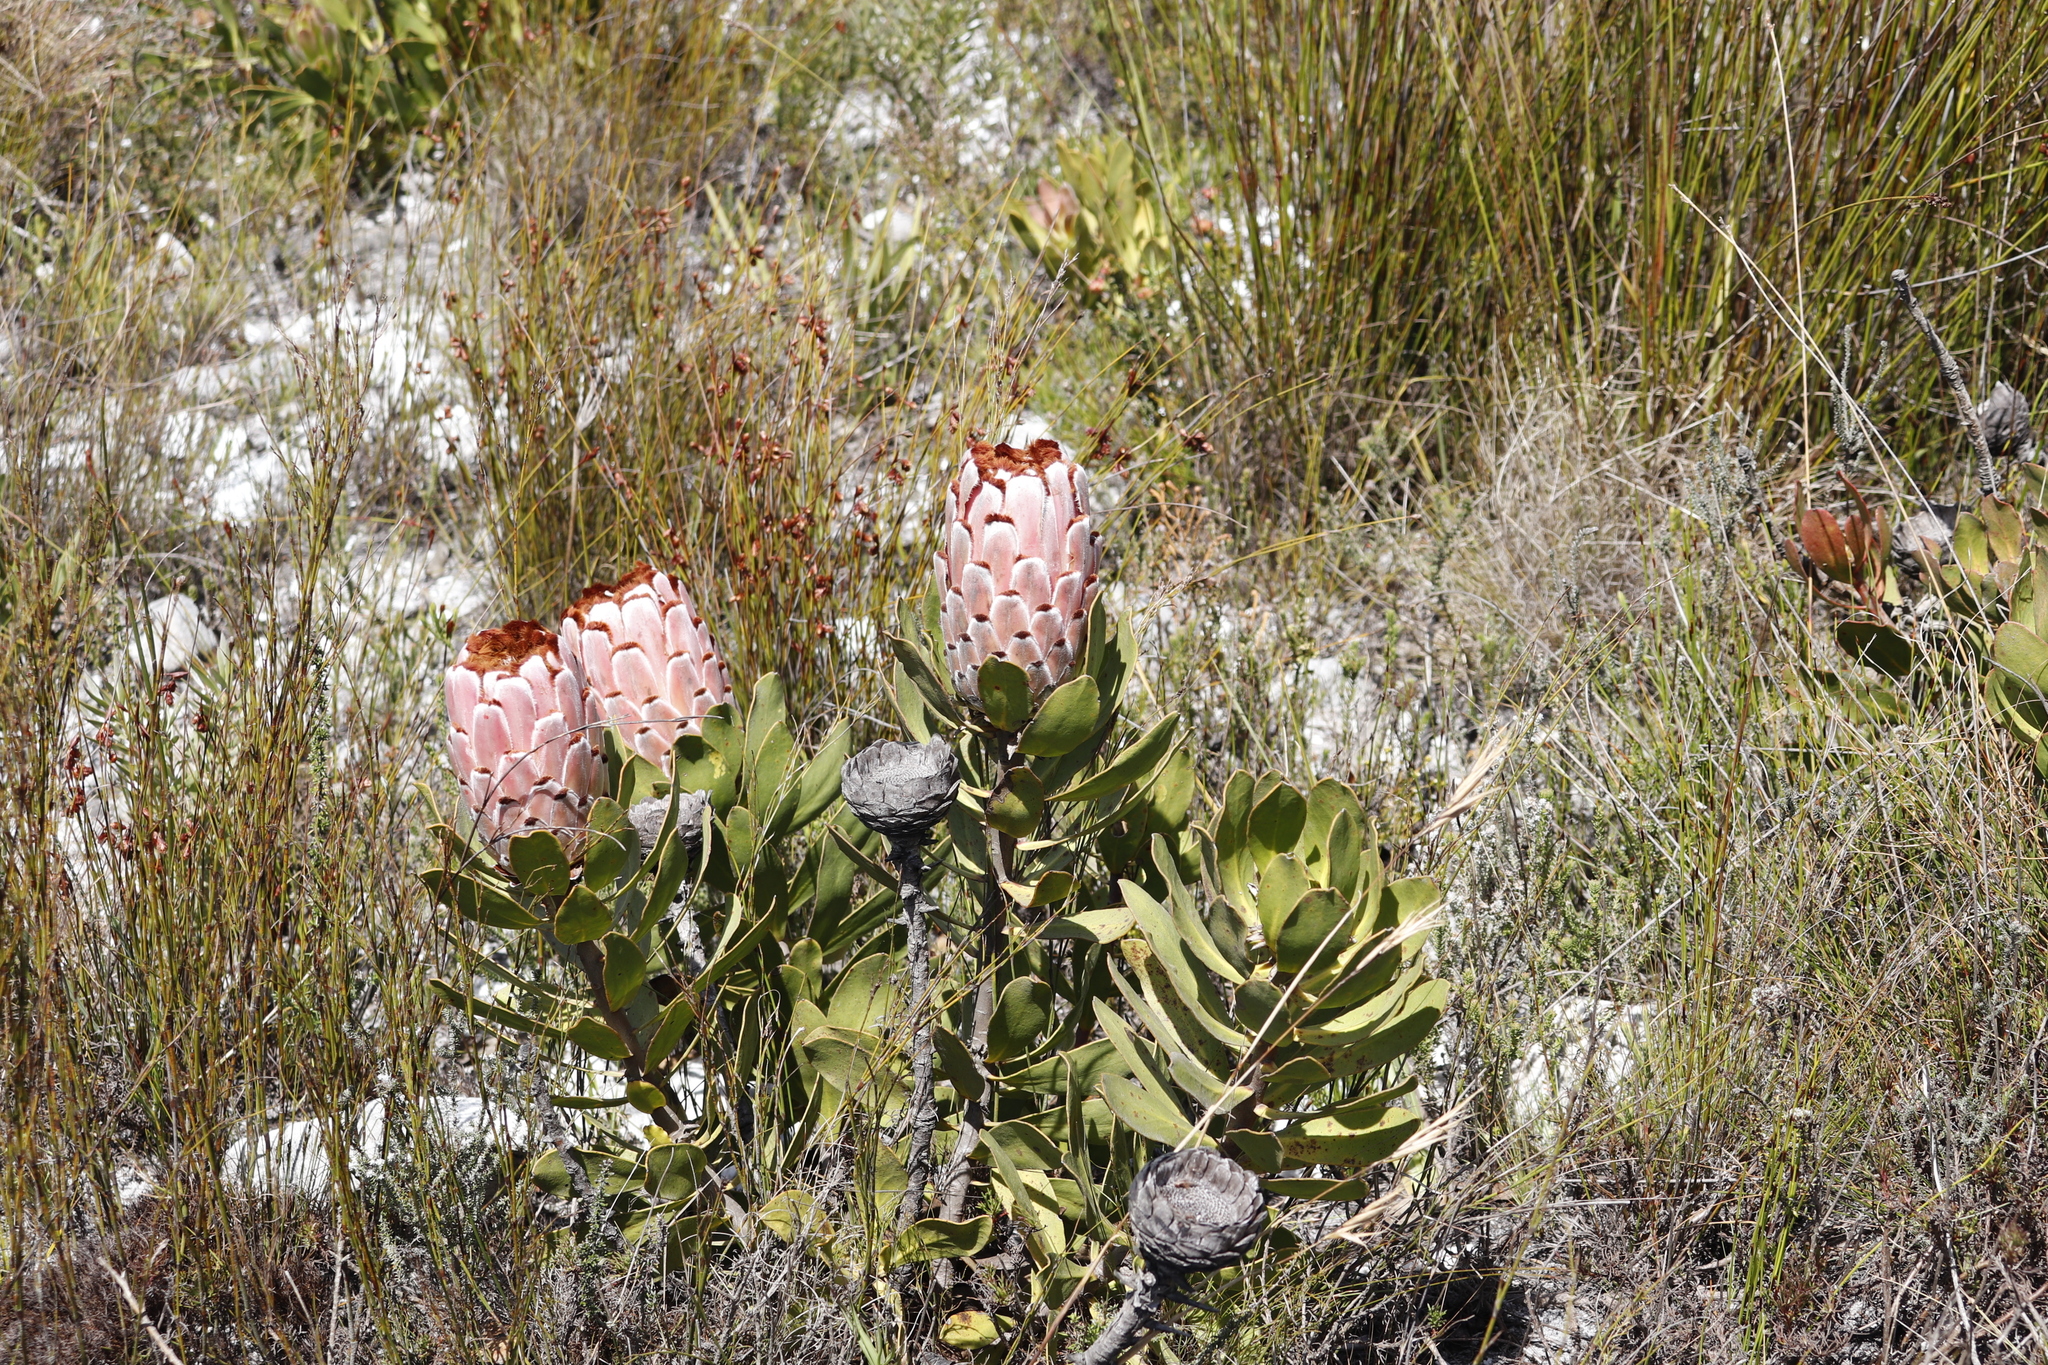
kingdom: Plantae
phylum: Tracheophyta
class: Magnoliopsida
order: Proteales
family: Proteaceae
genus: Protea
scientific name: Protea speciosa
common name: Brown-beard sugarbush
